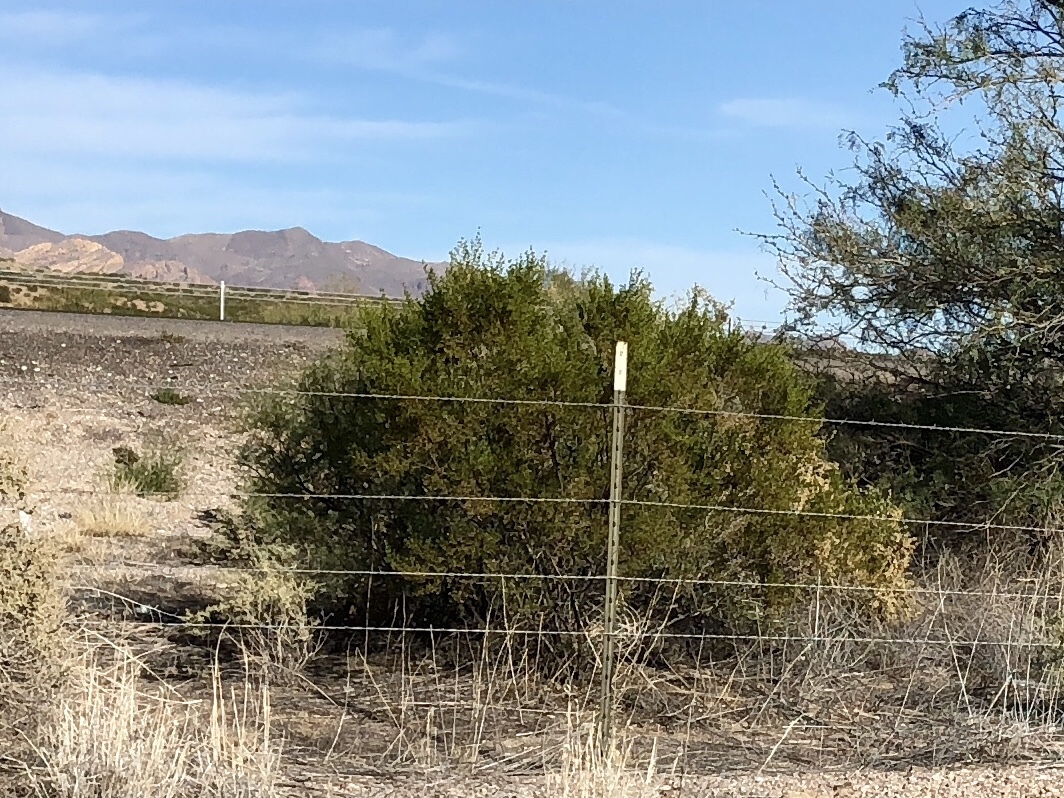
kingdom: Plantae
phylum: Tracheophyta
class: Magnoliopsida
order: Zygophyllales
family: Zygophyllaceae
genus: Larrea
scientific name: Larrea tridentata
